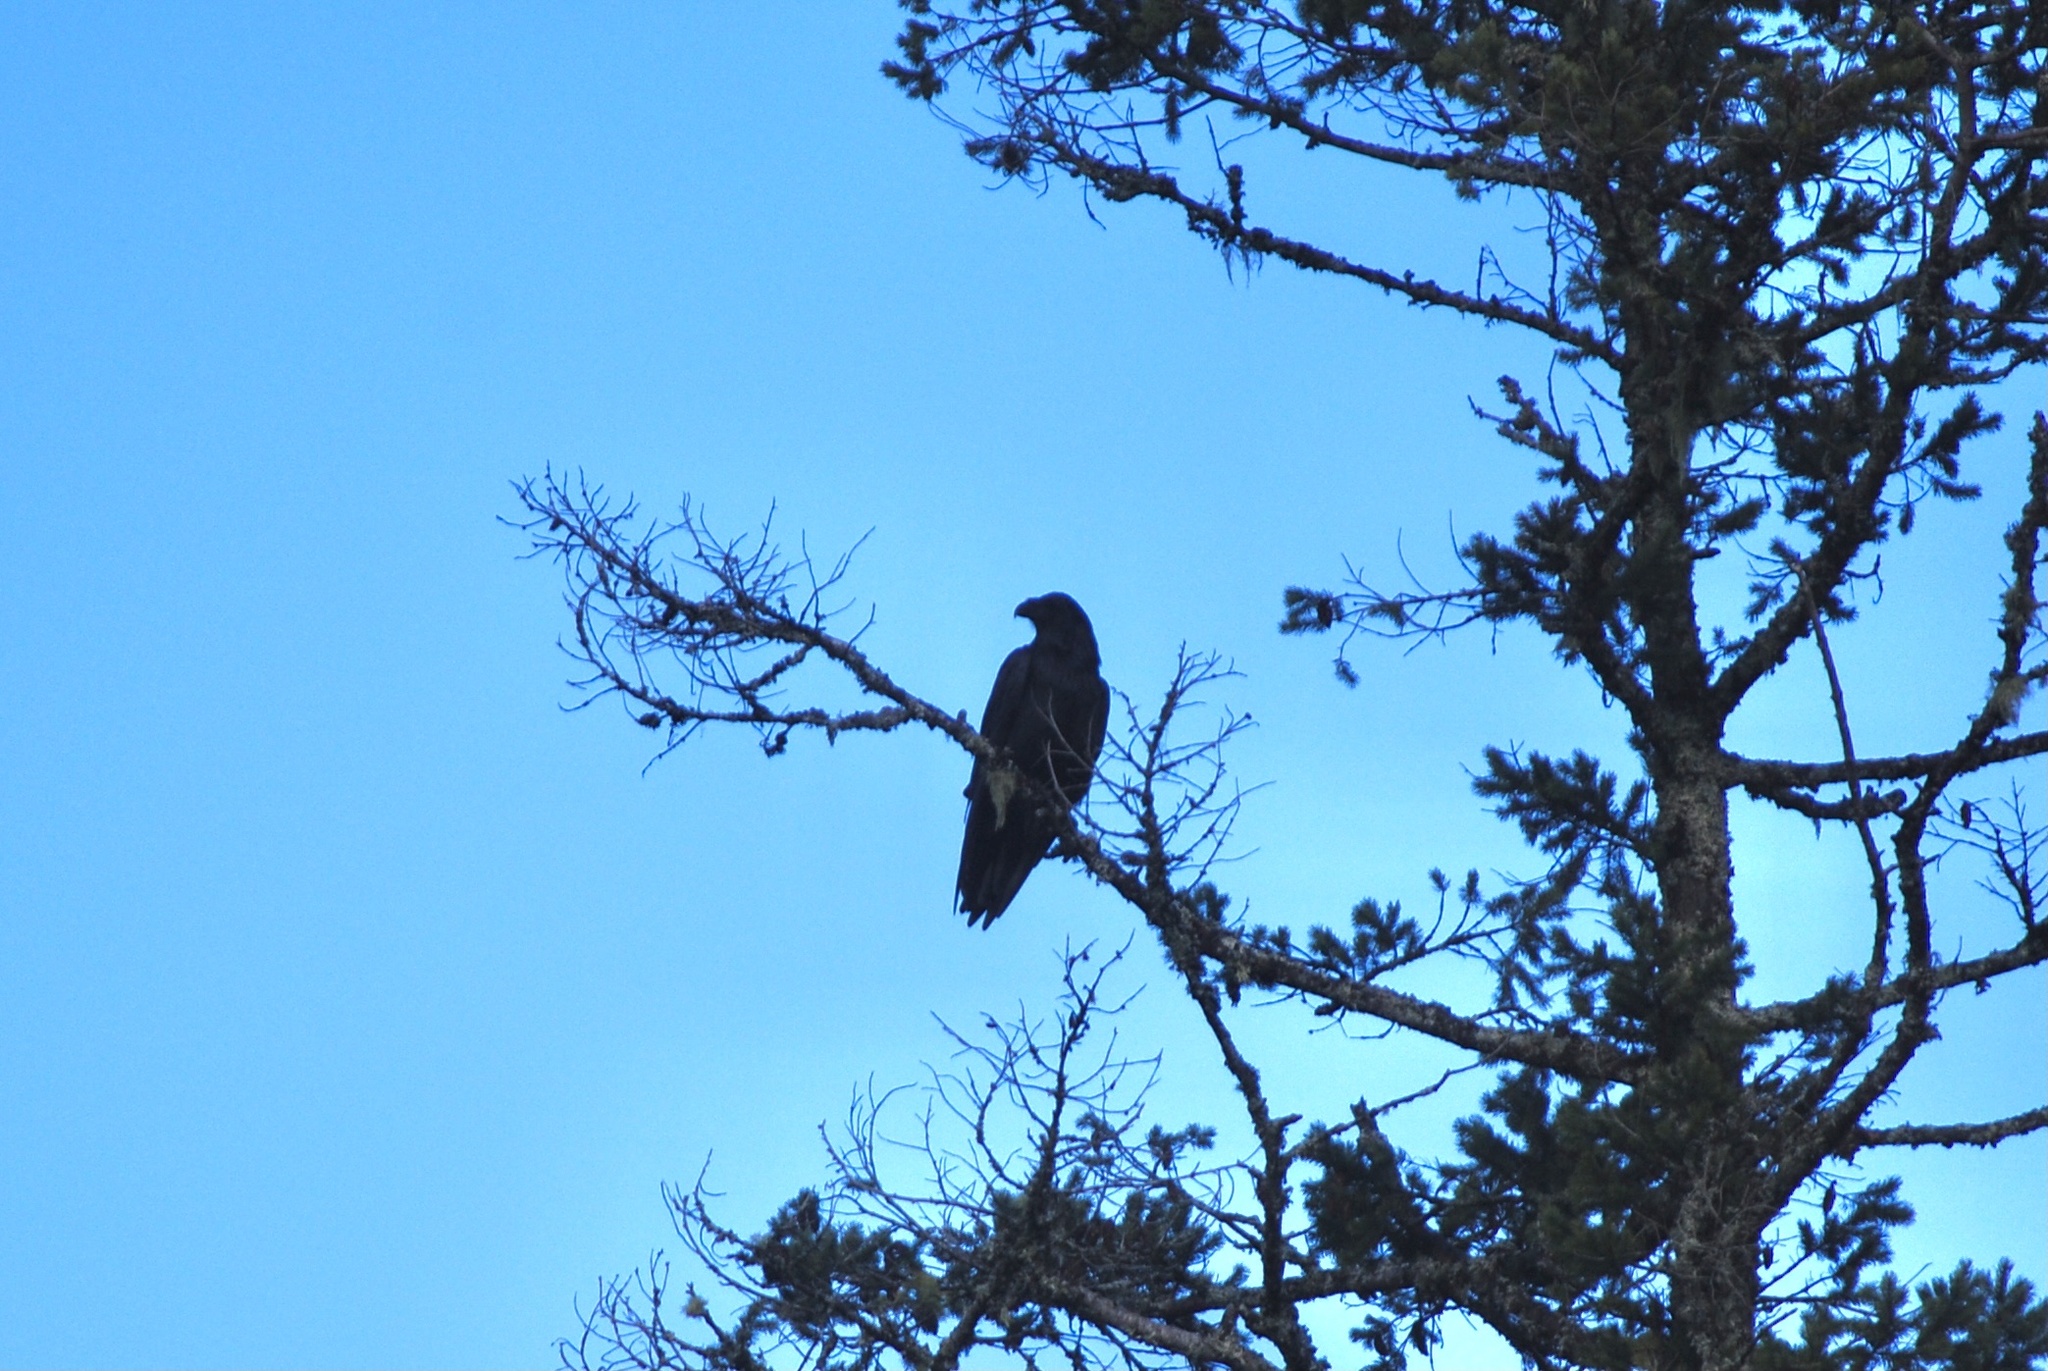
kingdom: Animalia
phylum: Chordata
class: Aves
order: Passeriformes
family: Corvidae
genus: Corvus
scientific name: Corvus corax
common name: Common raven
